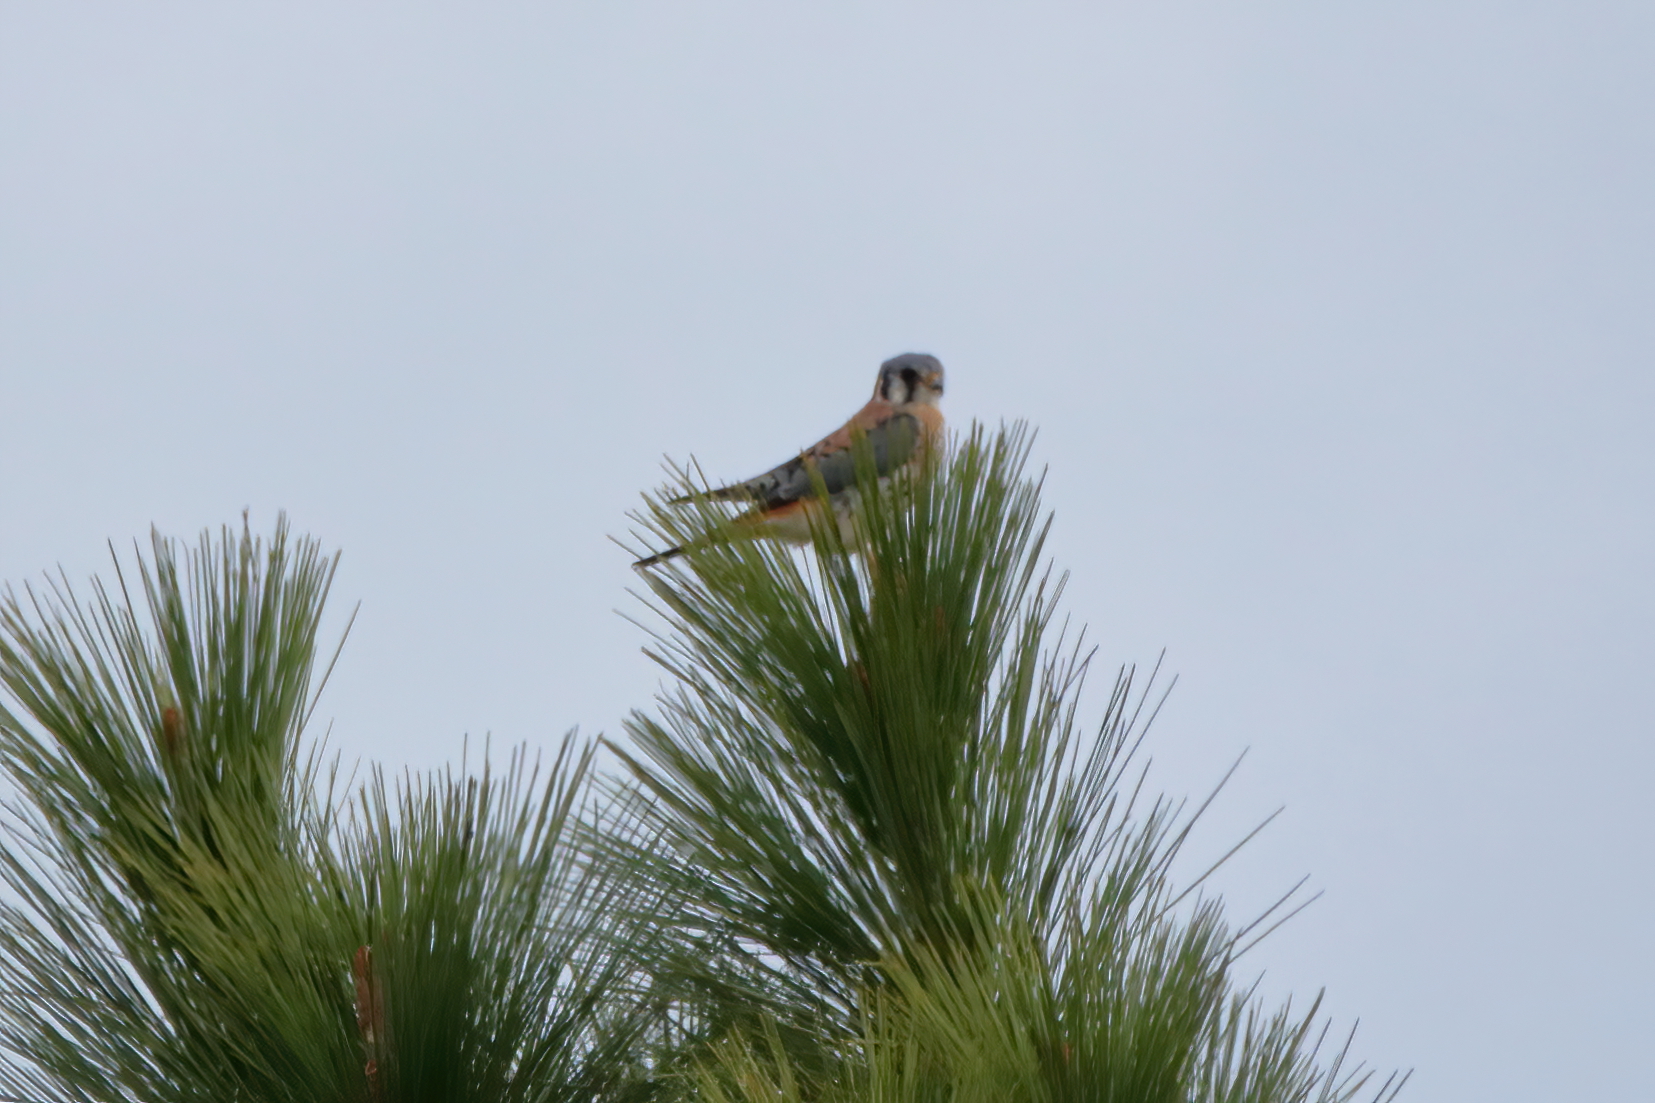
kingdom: Animalia
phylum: Chordata
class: Aves
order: Falconiformes
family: Falconidae
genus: Falco
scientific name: Falco sparverius
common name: American kestrel
